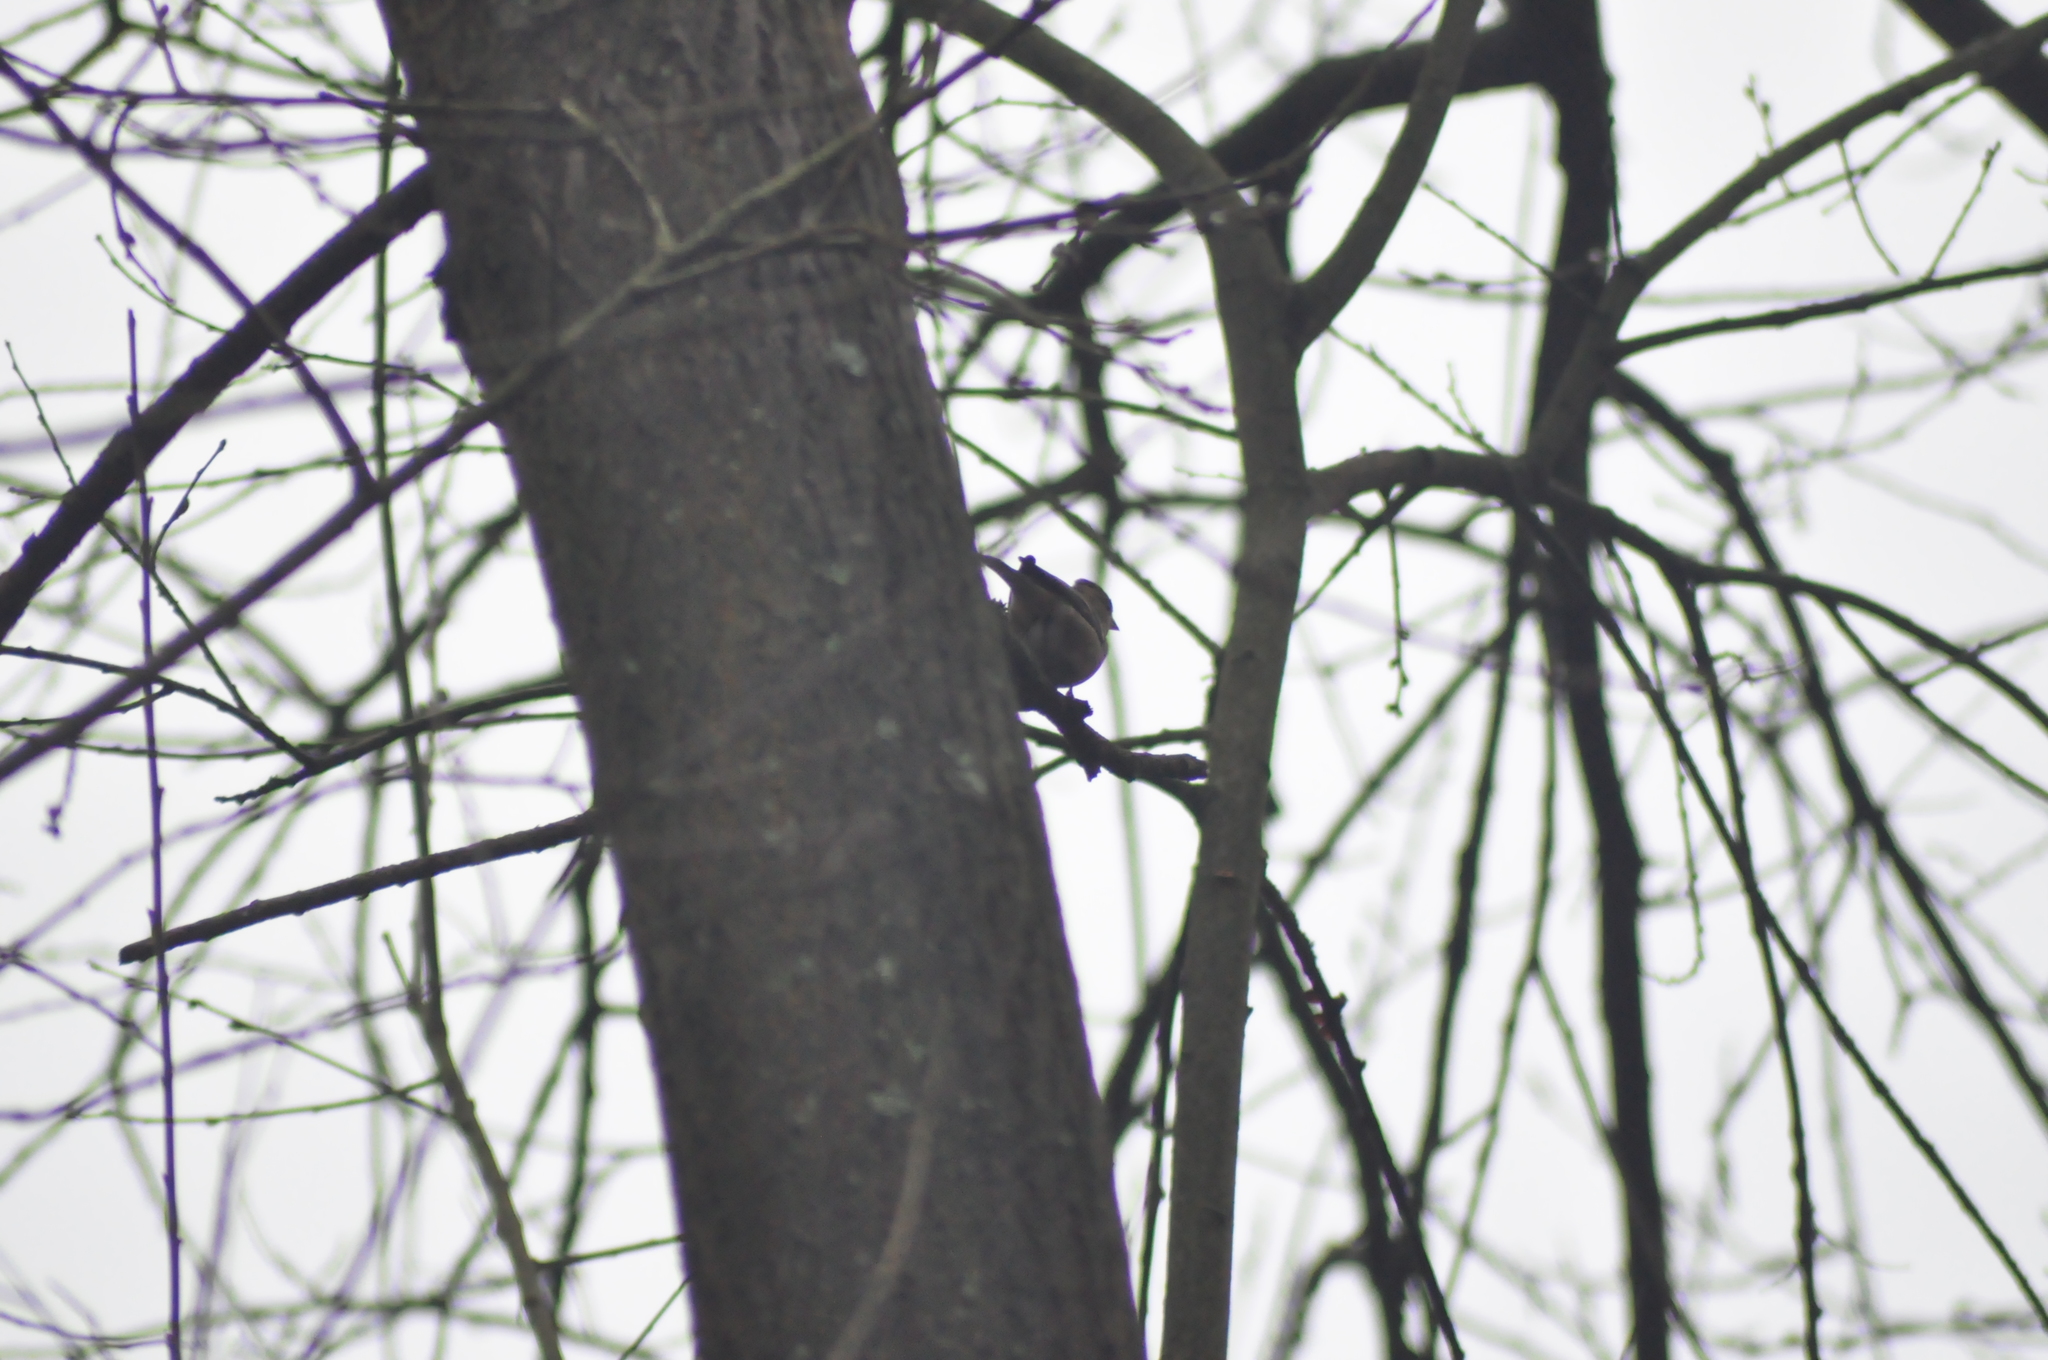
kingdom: Animalia
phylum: Chordata
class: Aves
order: Passeriformes
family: Fringillidae
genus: Fringilla
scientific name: Fringilla coelebs
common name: Common chaffinch
